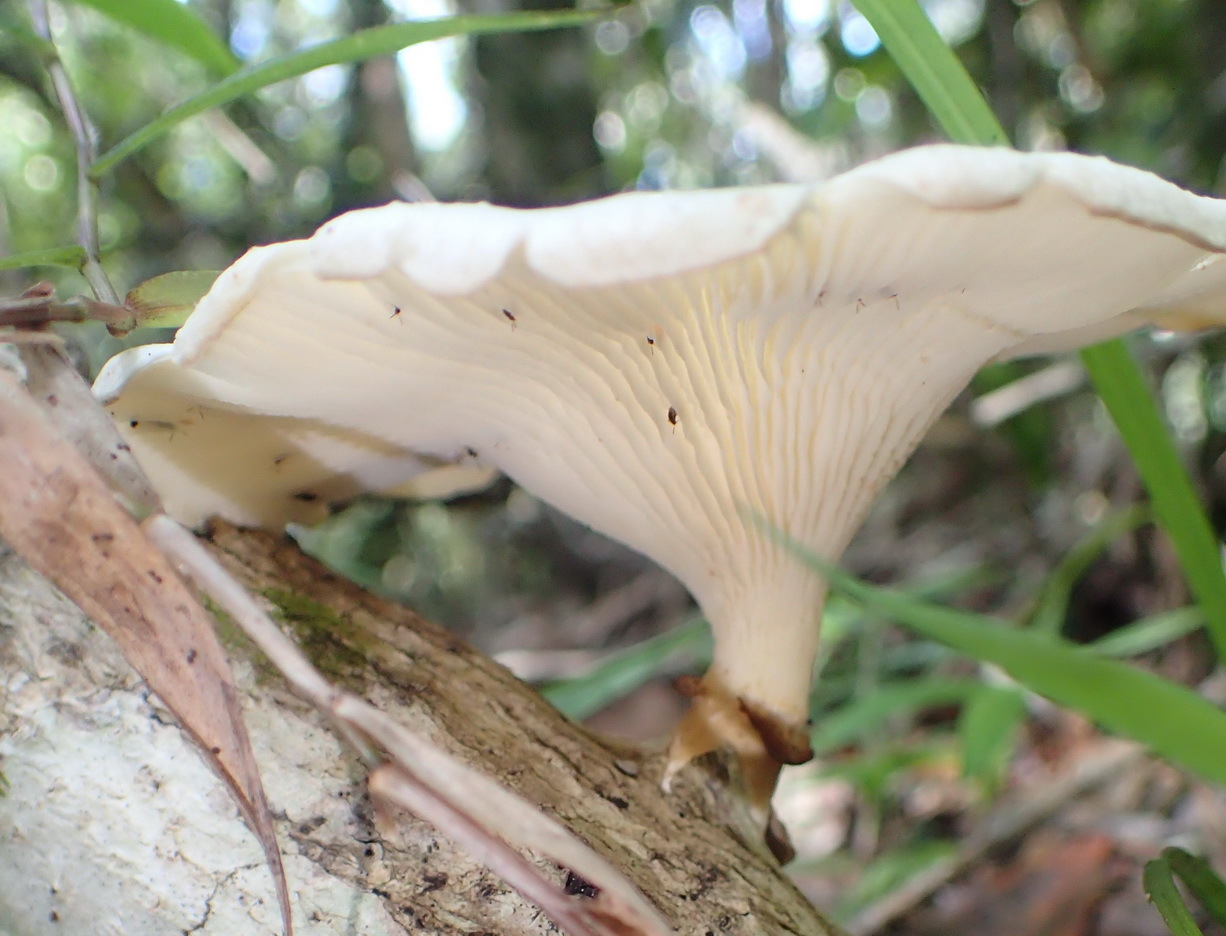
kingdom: Fungi
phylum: Basidiomycota
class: Agaricomycetes
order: Polyporales
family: Polyporaceae
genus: Lentinus
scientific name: Lentinus sajor-caju
